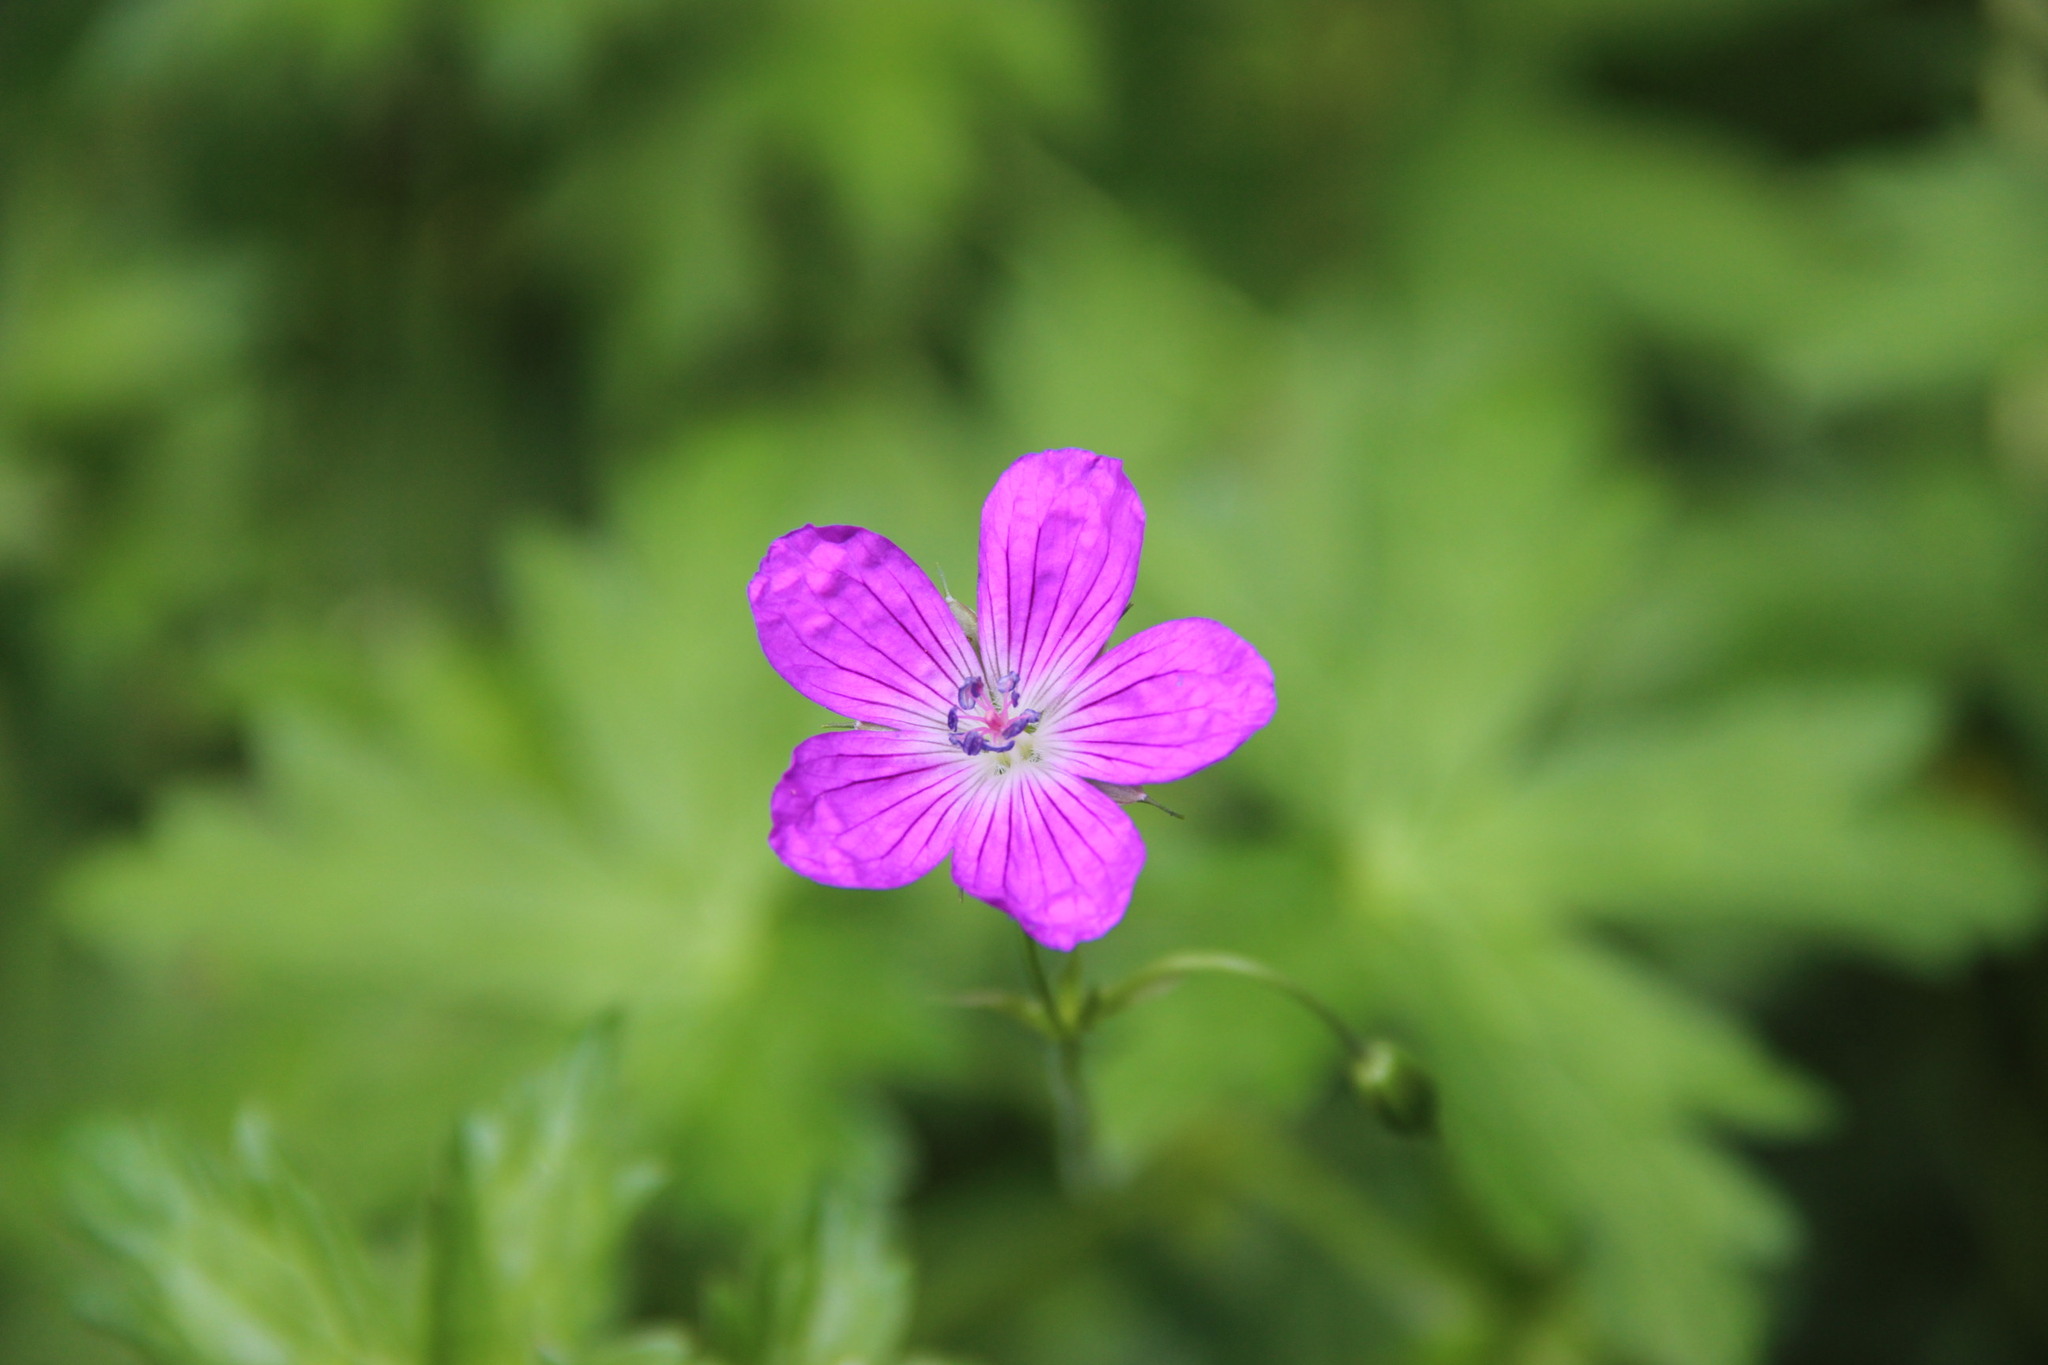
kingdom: Plantae
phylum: Tracheophyta
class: Magnoliopsida
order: Geraniales
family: Geraniaceae
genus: Geranium
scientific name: Geranium palustre
